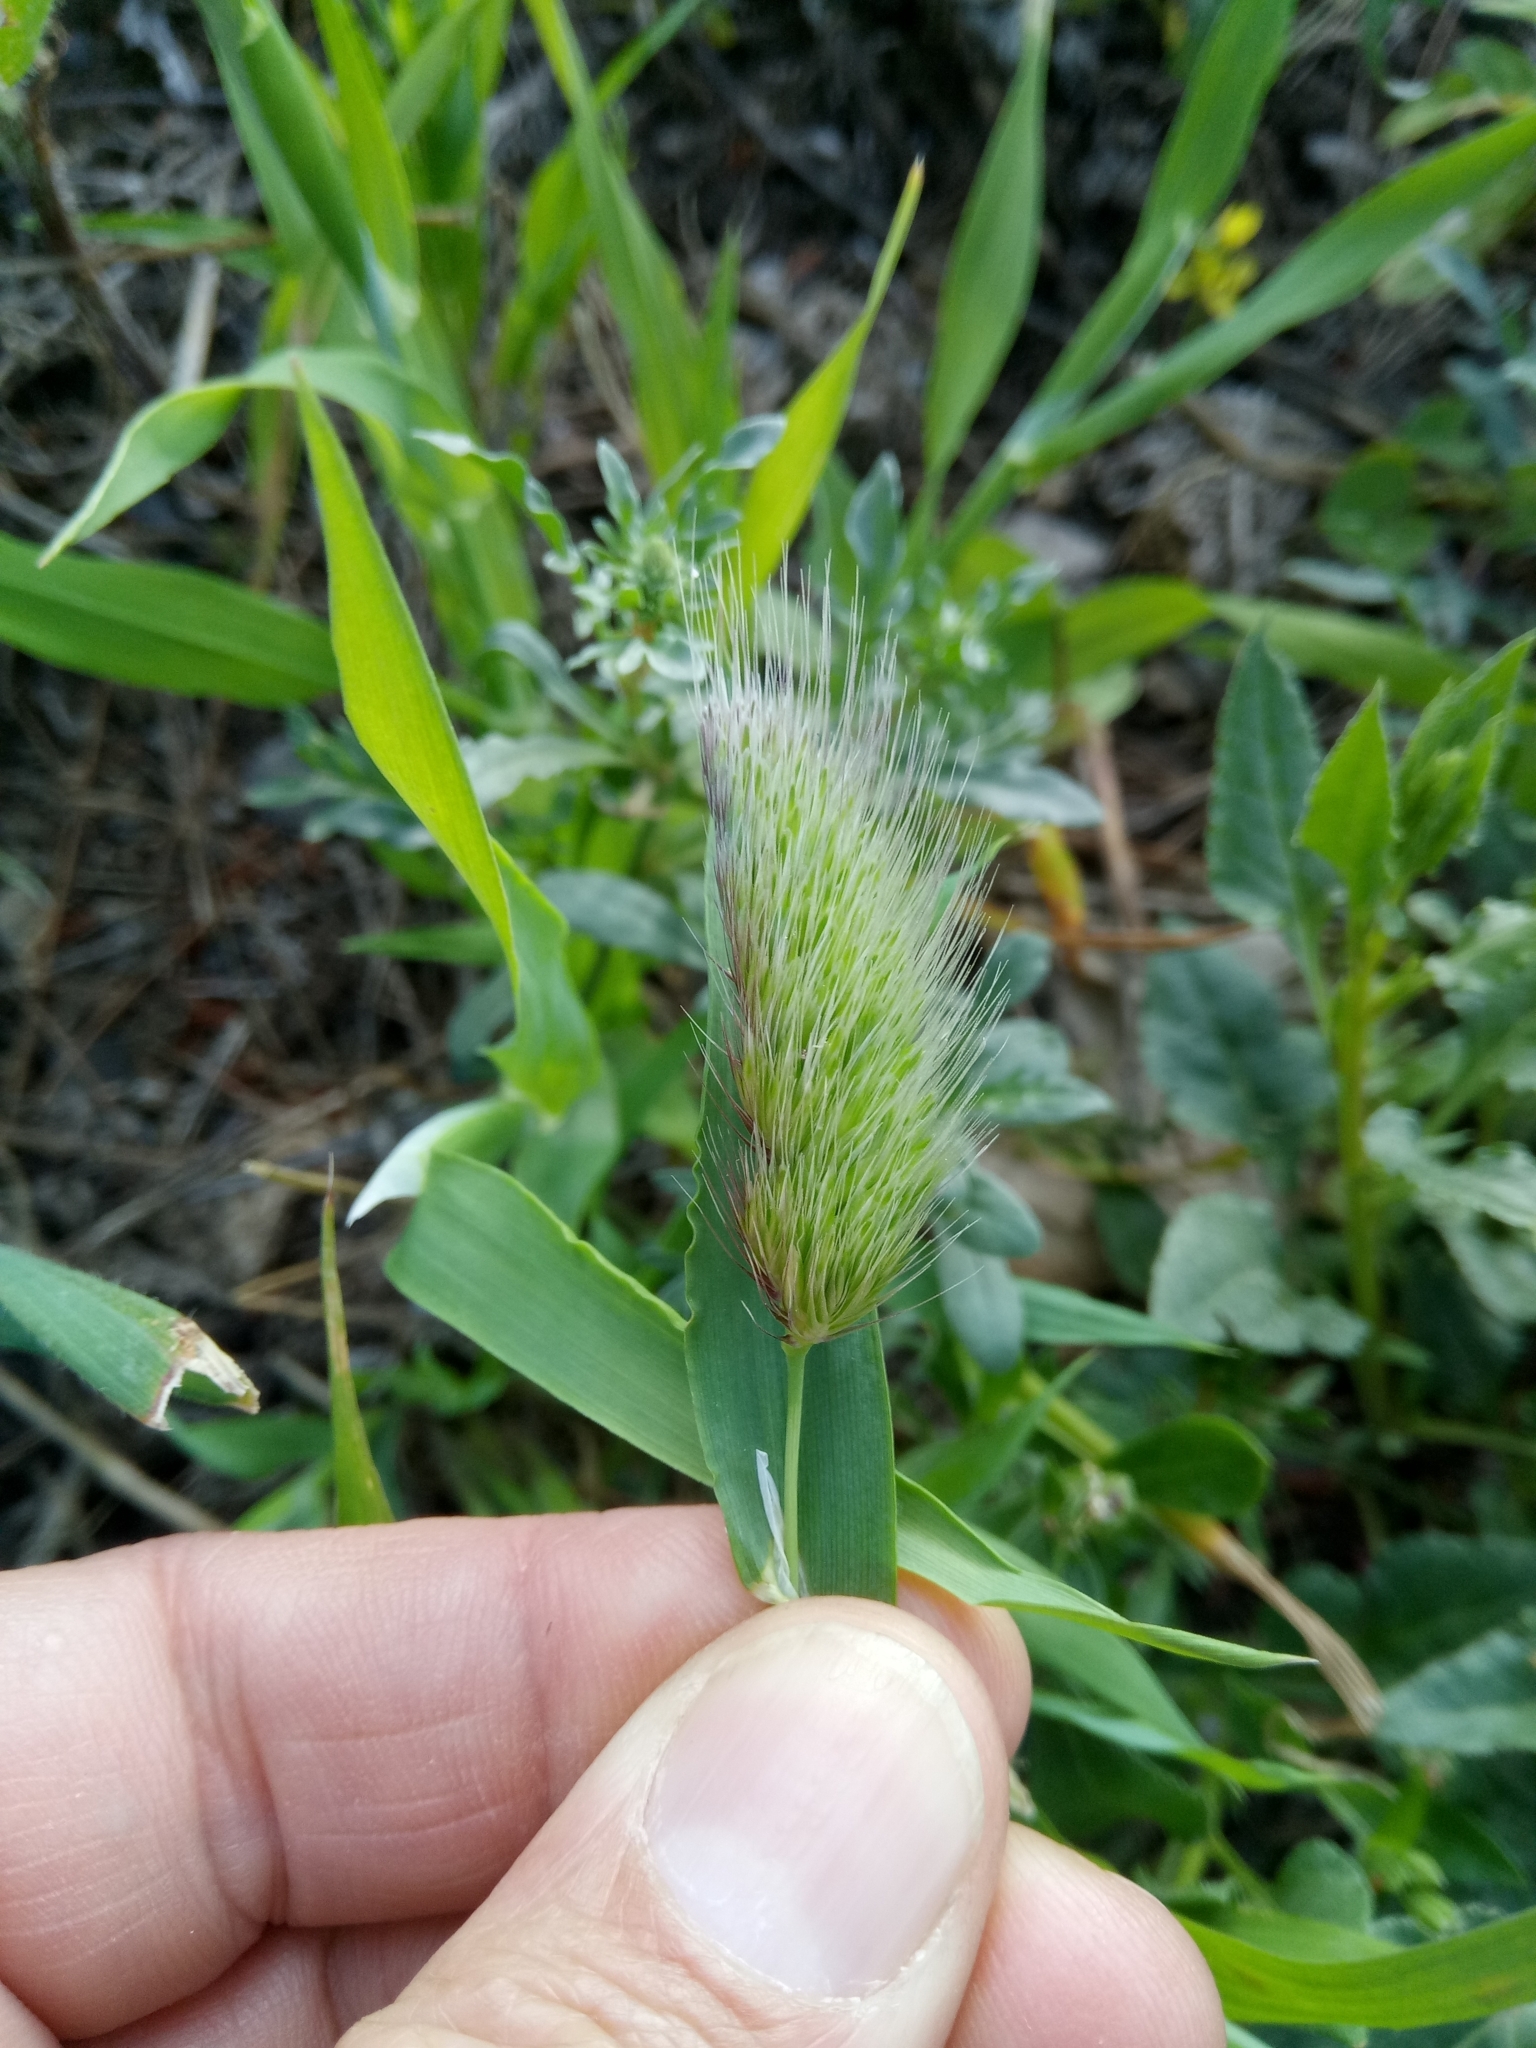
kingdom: Plantae
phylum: Tracheophyta
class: Liliopsida
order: Poales
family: Poaceae
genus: Cynosurus
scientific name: Cynosurus echinatus
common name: Rough dog's-tail
